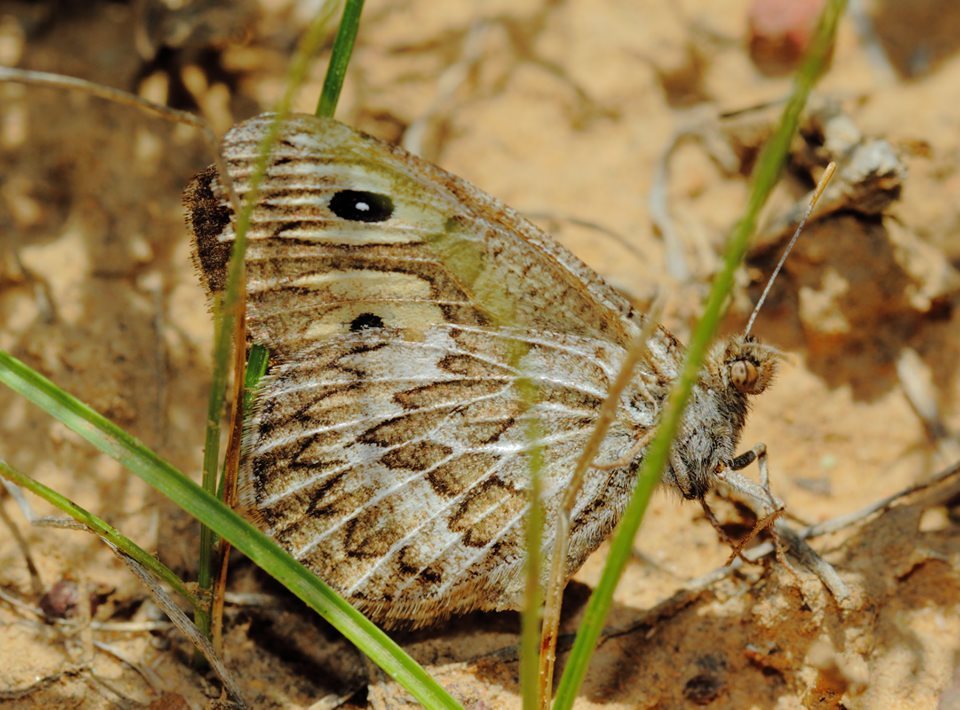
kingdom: Animalia
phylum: Arthropoda
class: Insecta
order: Lepidoptera
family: Nymphalidae
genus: Neominois
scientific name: Neominois ridingsii
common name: Ridings' satyr
